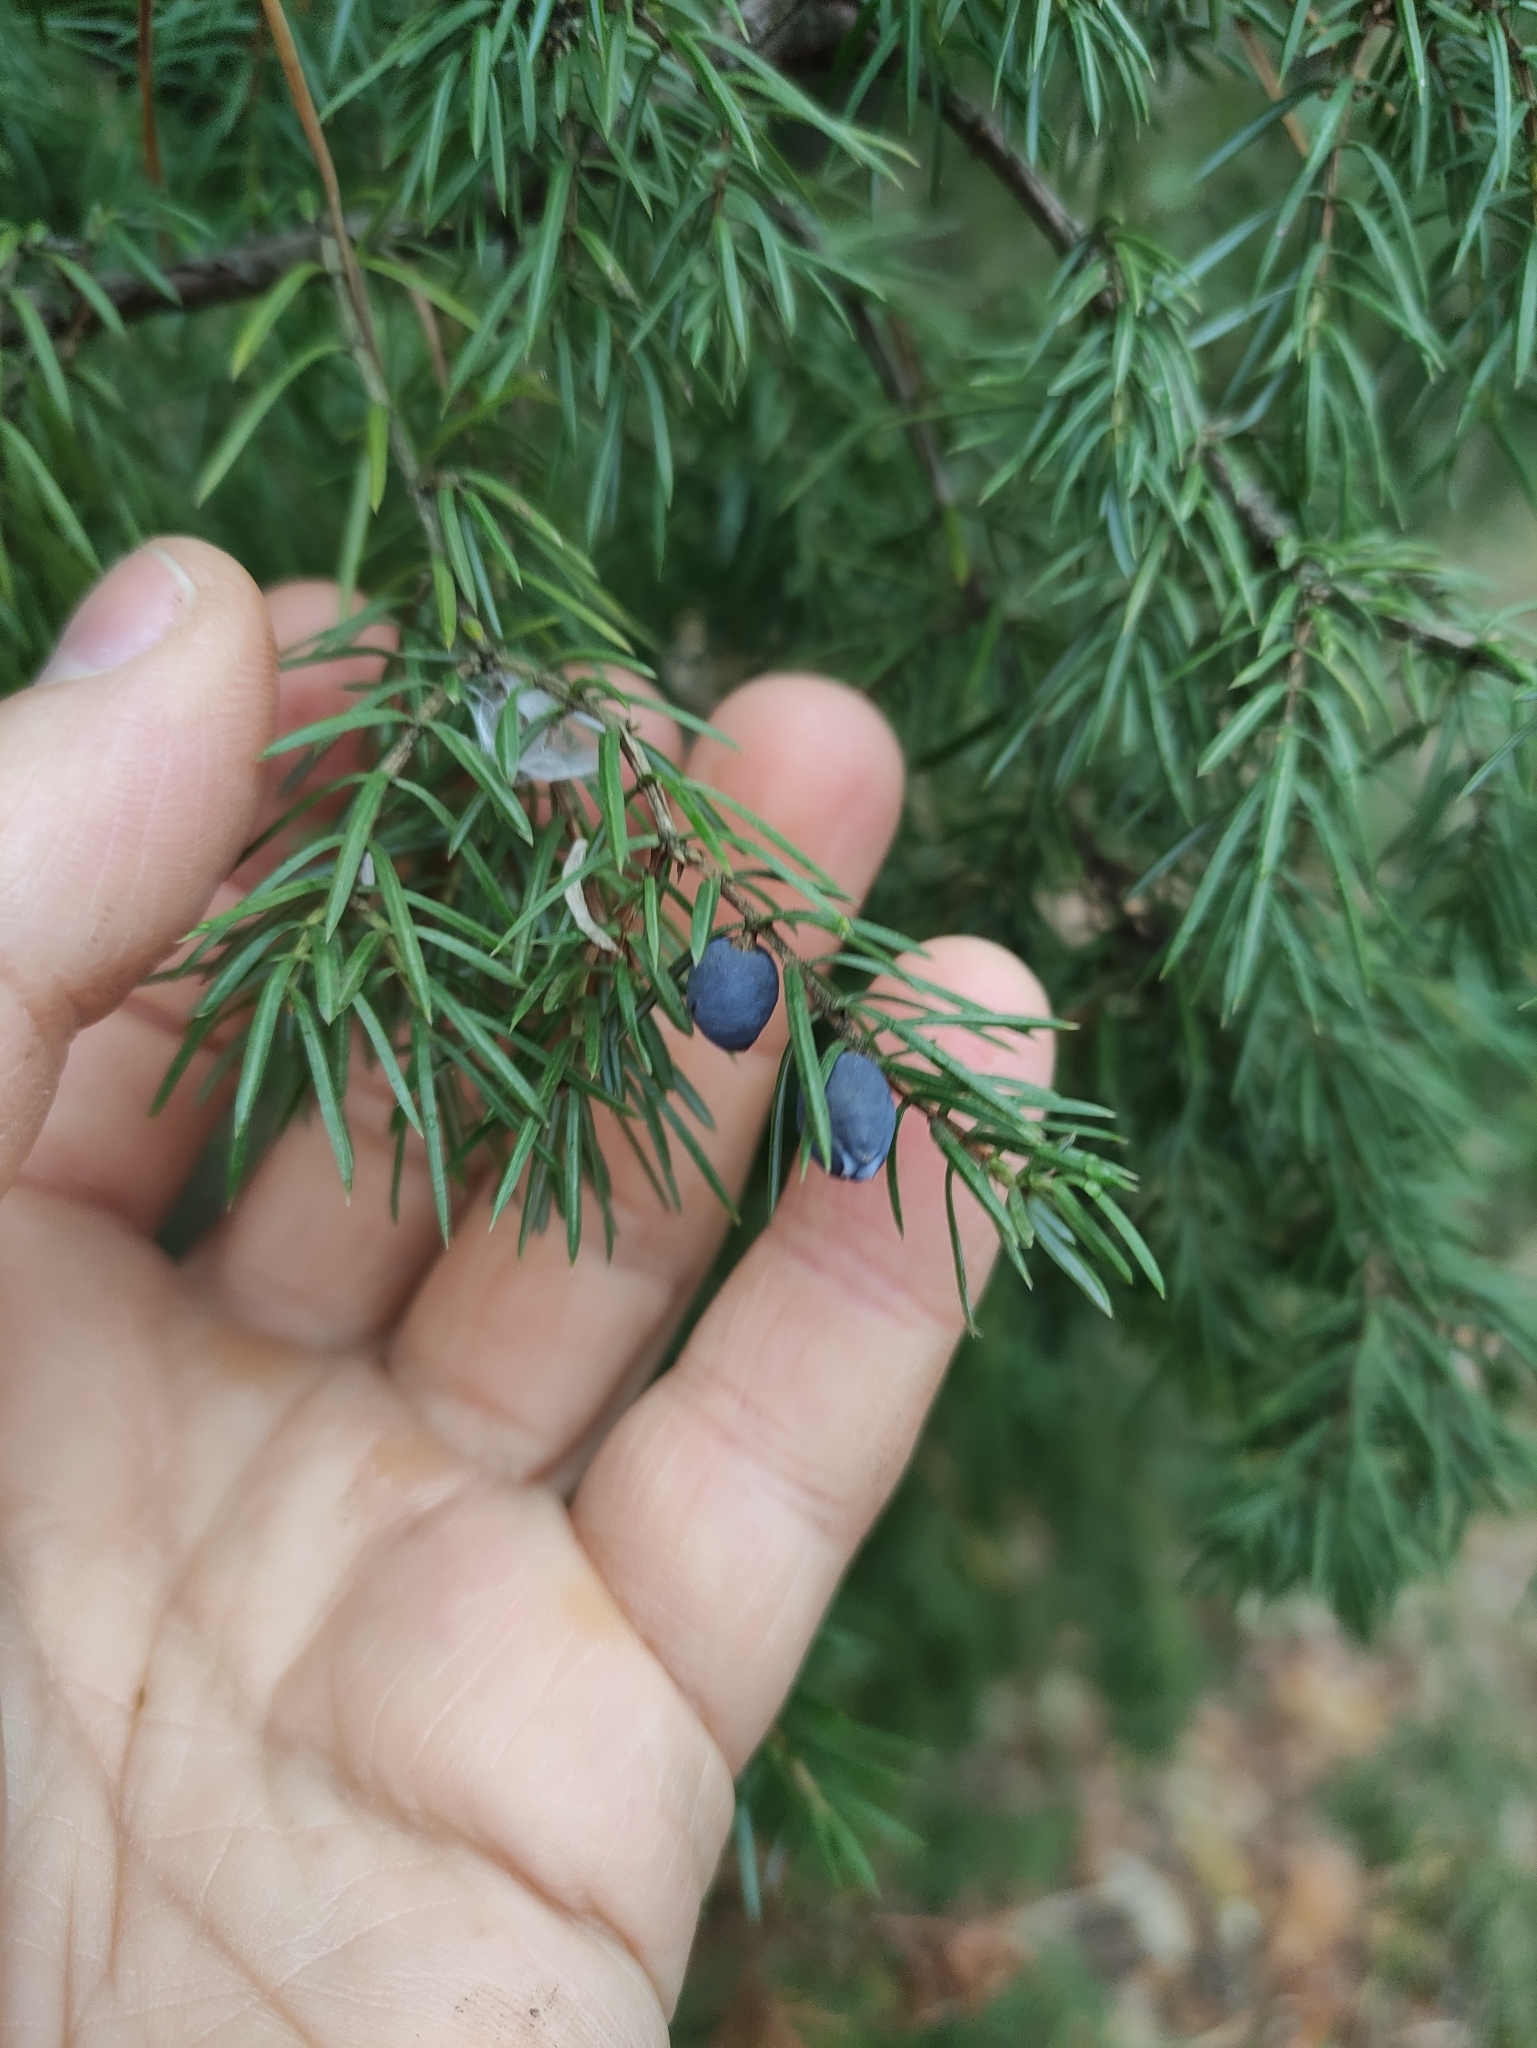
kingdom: Plantae
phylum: Tracheophyta
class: Pinopsida
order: Pinales
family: Cupressaceae
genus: Juniperus
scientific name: Juniperus communis
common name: Common juniper
